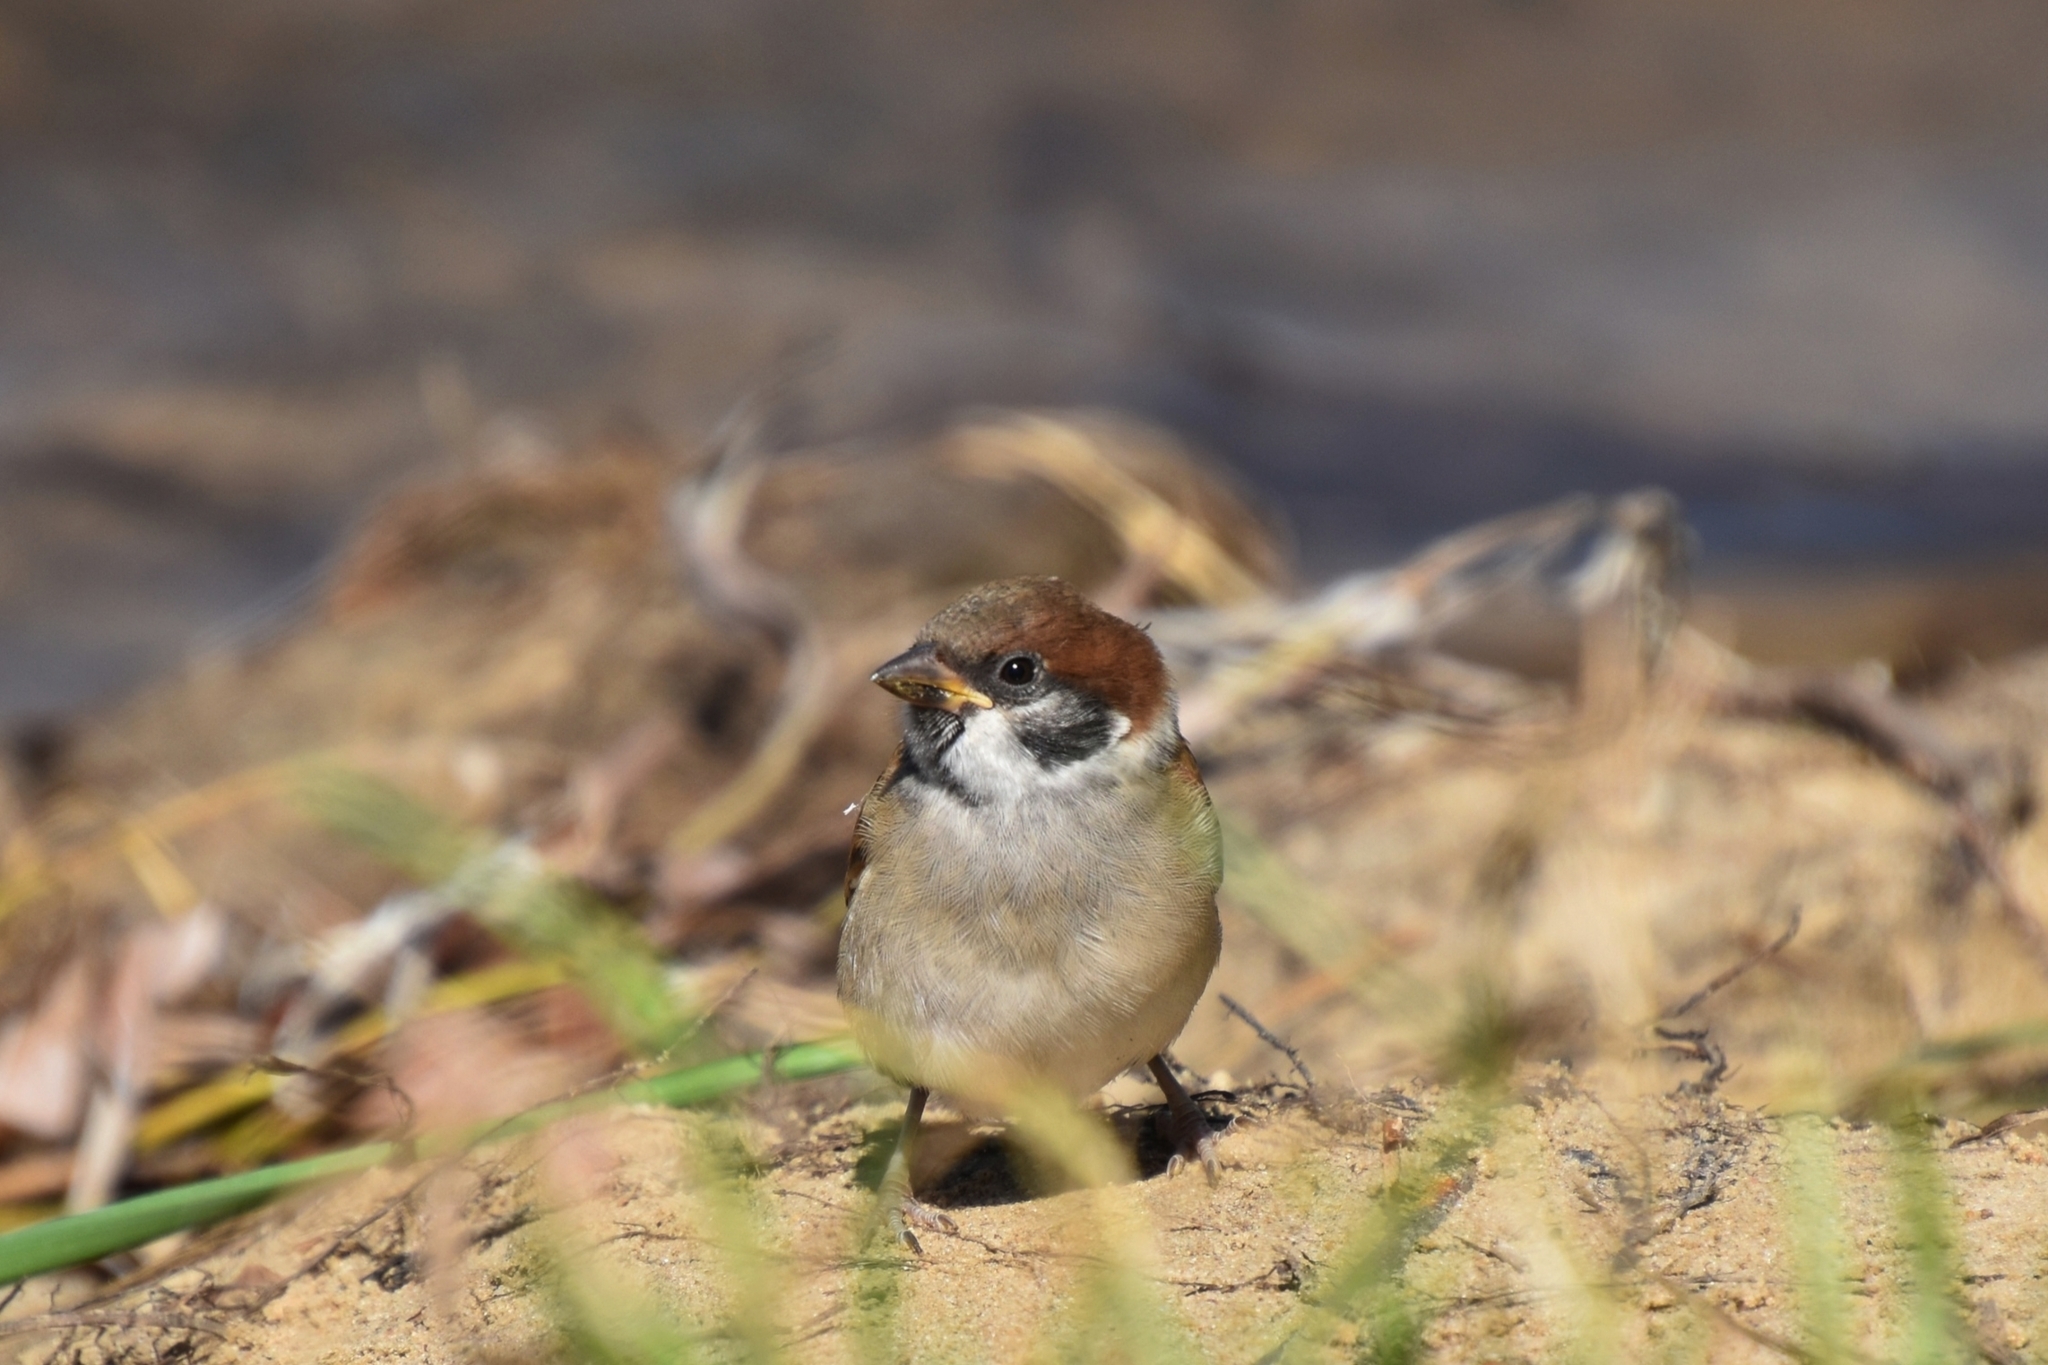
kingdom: Animalia
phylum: Chordata
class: Aves
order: Passeriformes
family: Passeridae
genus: Passer
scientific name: Passer montanus
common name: Eurasian tree sparrow
